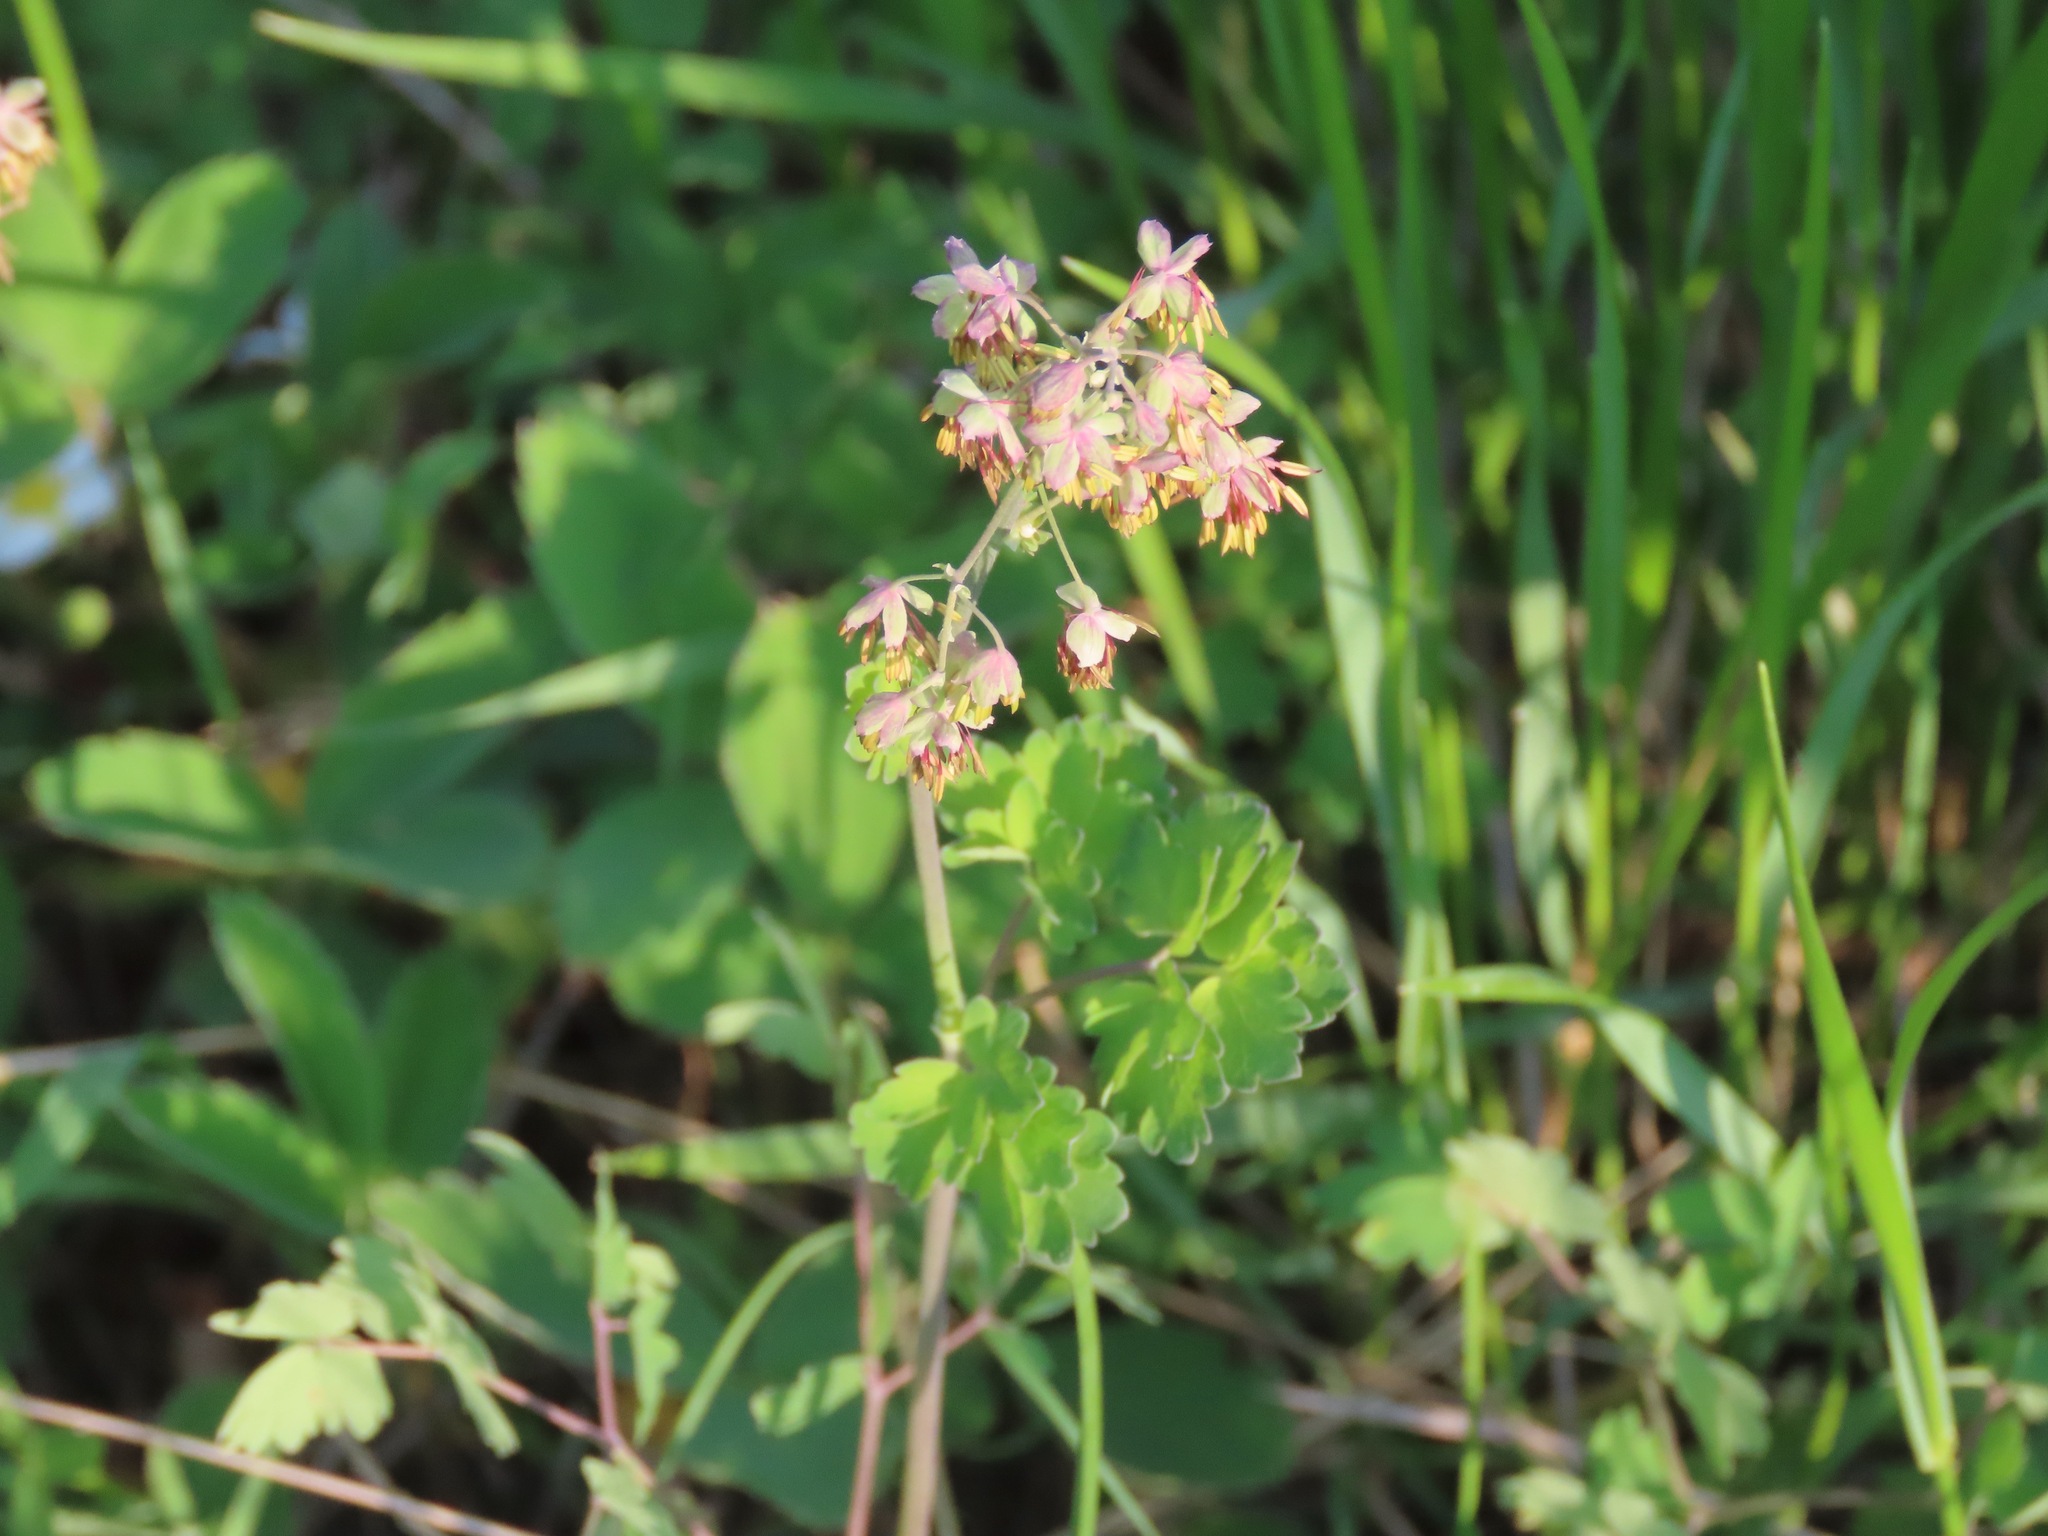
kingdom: Plantae
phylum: Tracheophyta
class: Magnoliopsida
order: Ranunculales
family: Ranunculaceae
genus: Thalictrum
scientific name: Thalictrum occidentale
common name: Western meadow-rue
